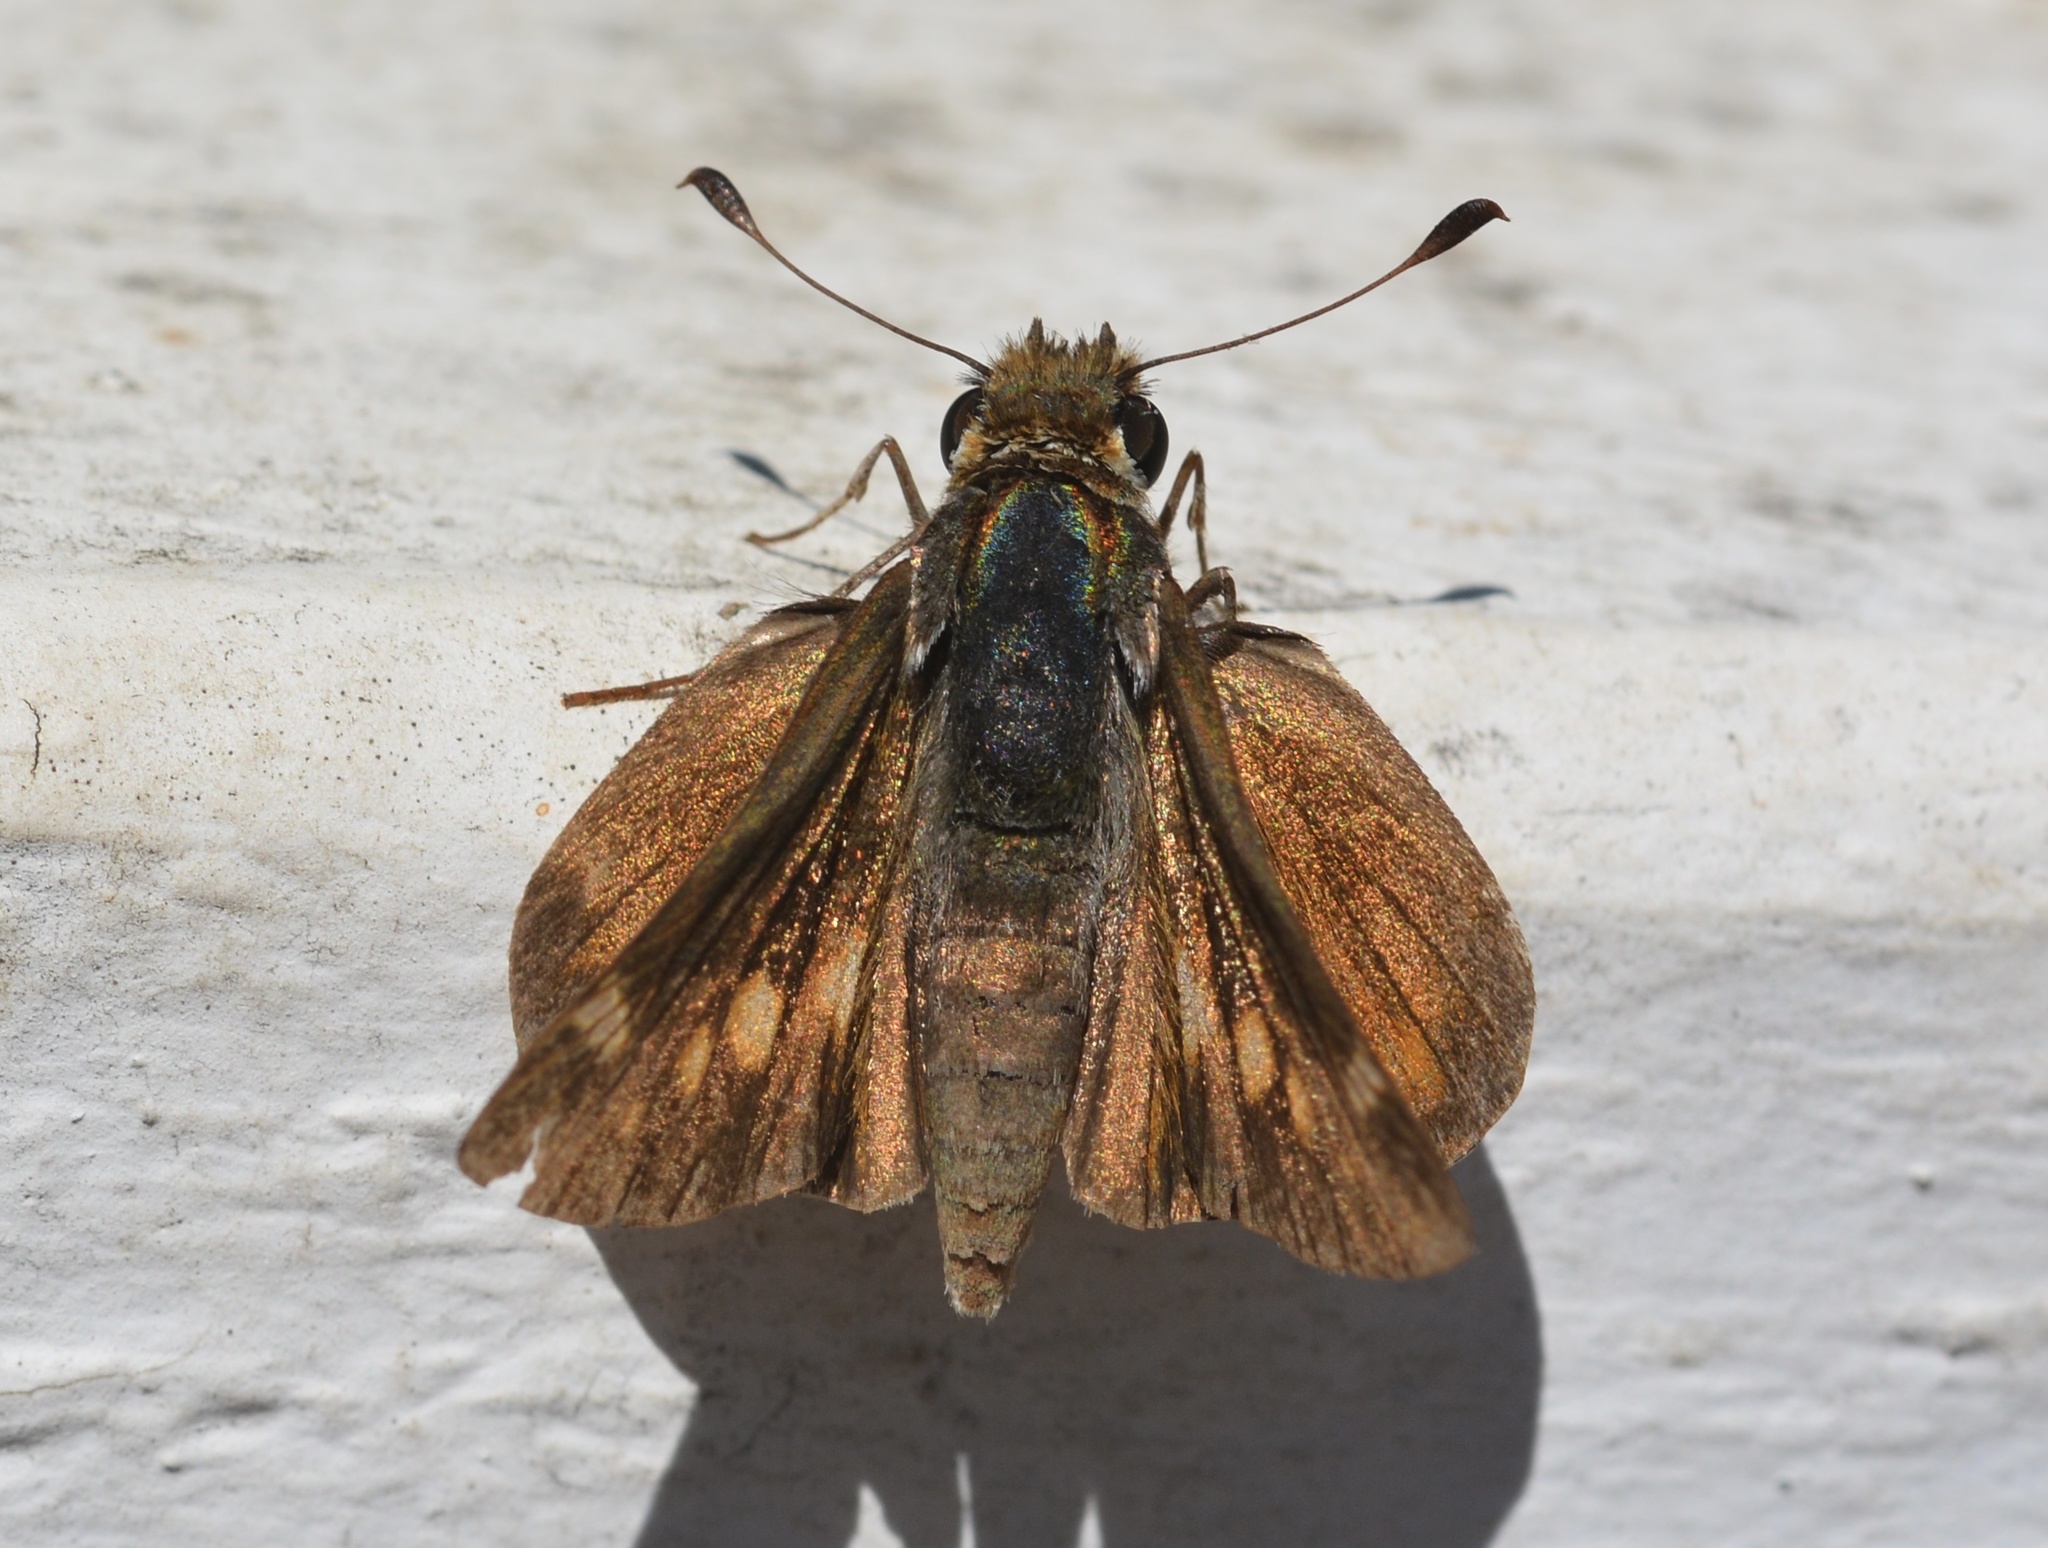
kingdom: Animalia
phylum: Arthropoda
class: Insecta
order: Lepidoptera
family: Hesperiidae
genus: Lon
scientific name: Lon melane
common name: Umber skipper
